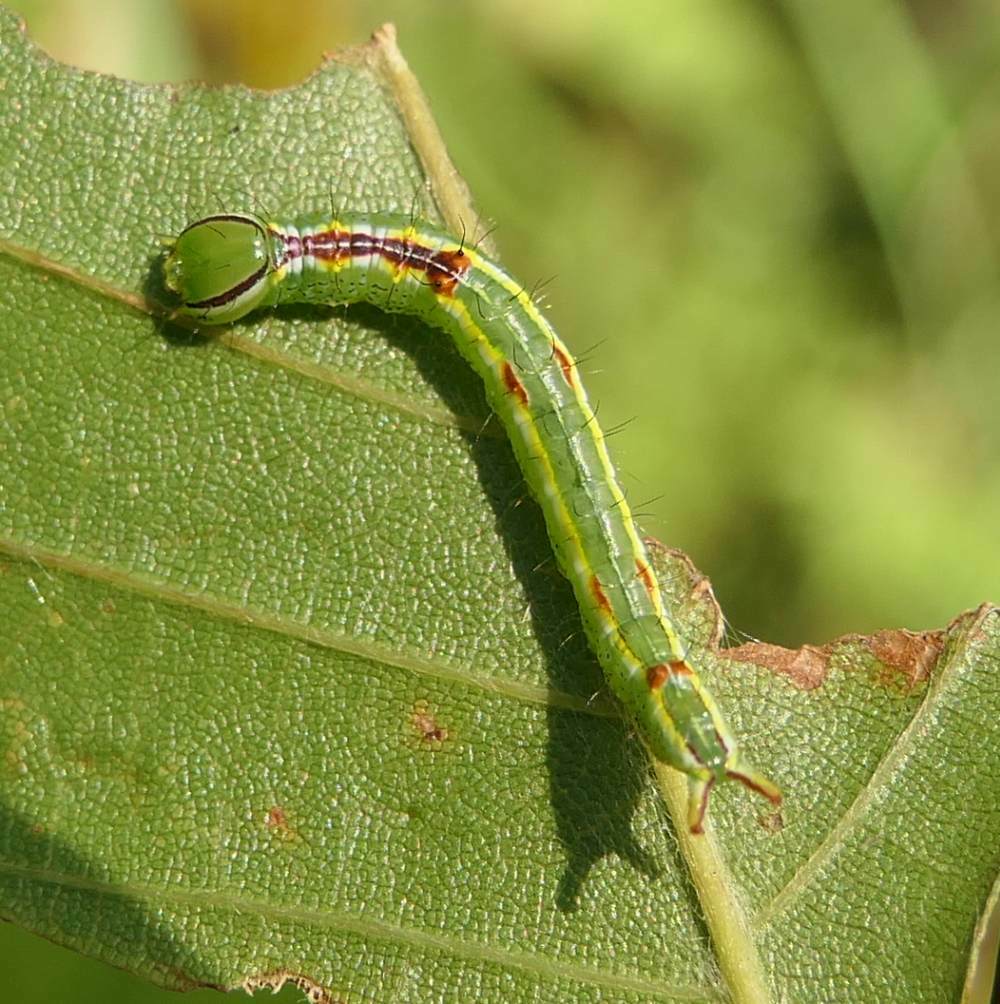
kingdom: Animalia
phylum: Arthropoda
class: Insecta
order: Lepidoptera
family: Notodontidae
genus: Lochmaeus
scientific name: Lochmaeus manteo
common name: Variable oakleaf caterpillar moth
